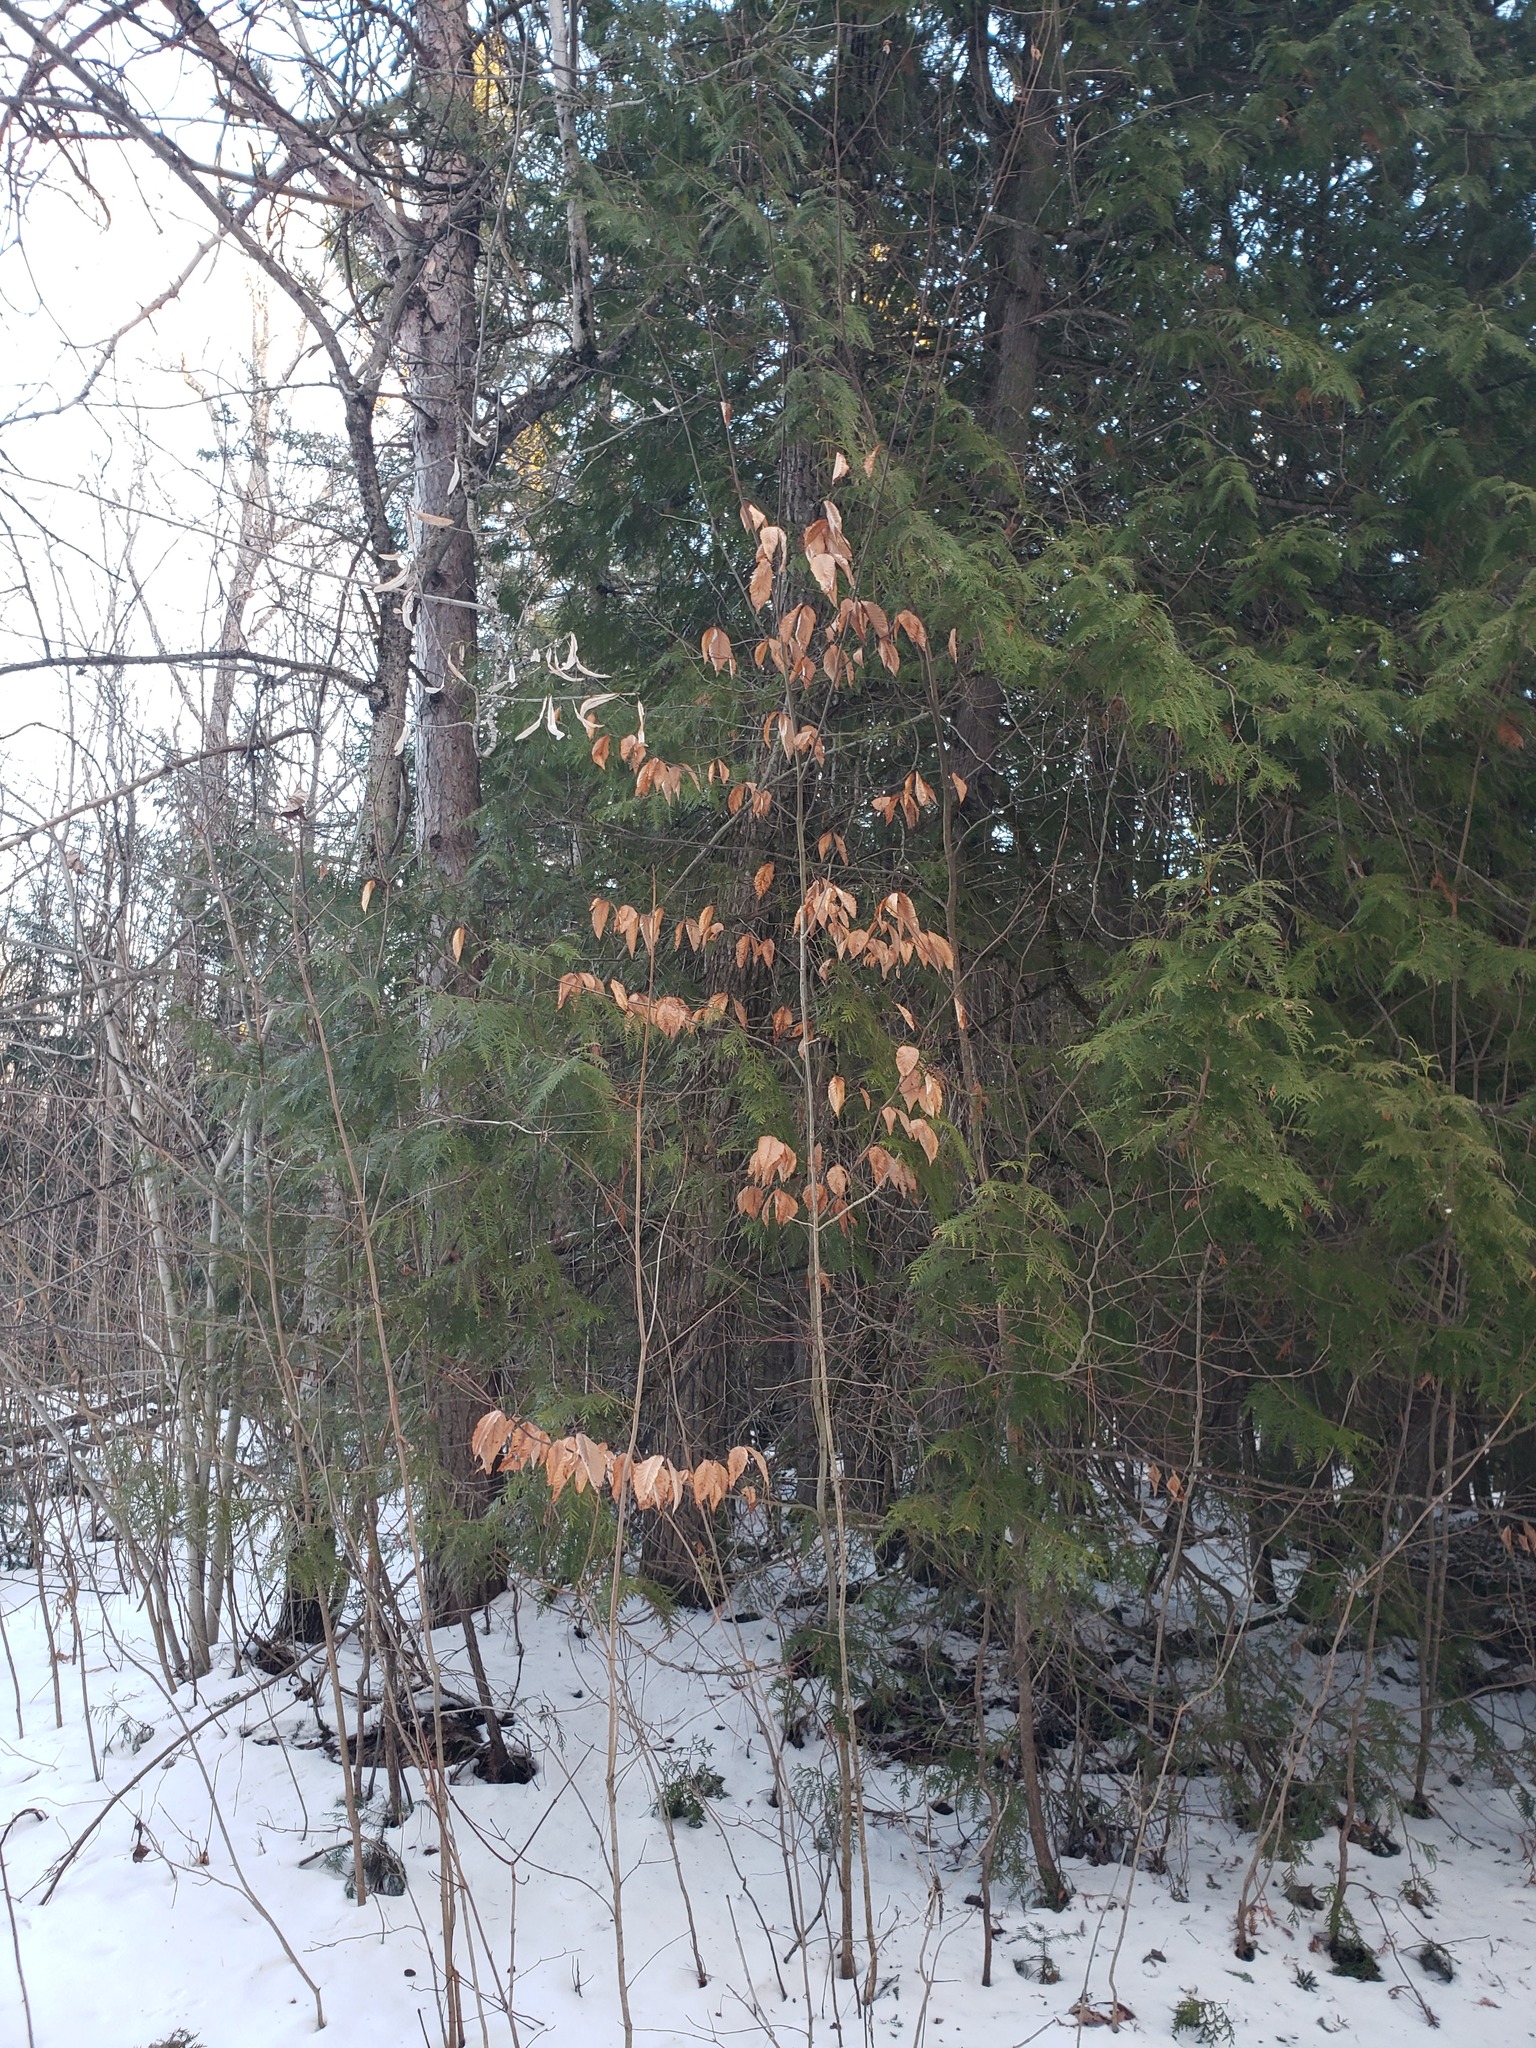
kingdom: Plantae
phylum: Tracheophyta
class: Magnoliopsida
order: Fagales
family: Fagaceae
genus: Fagus
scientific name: Fagus grandifolia
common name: American beech
